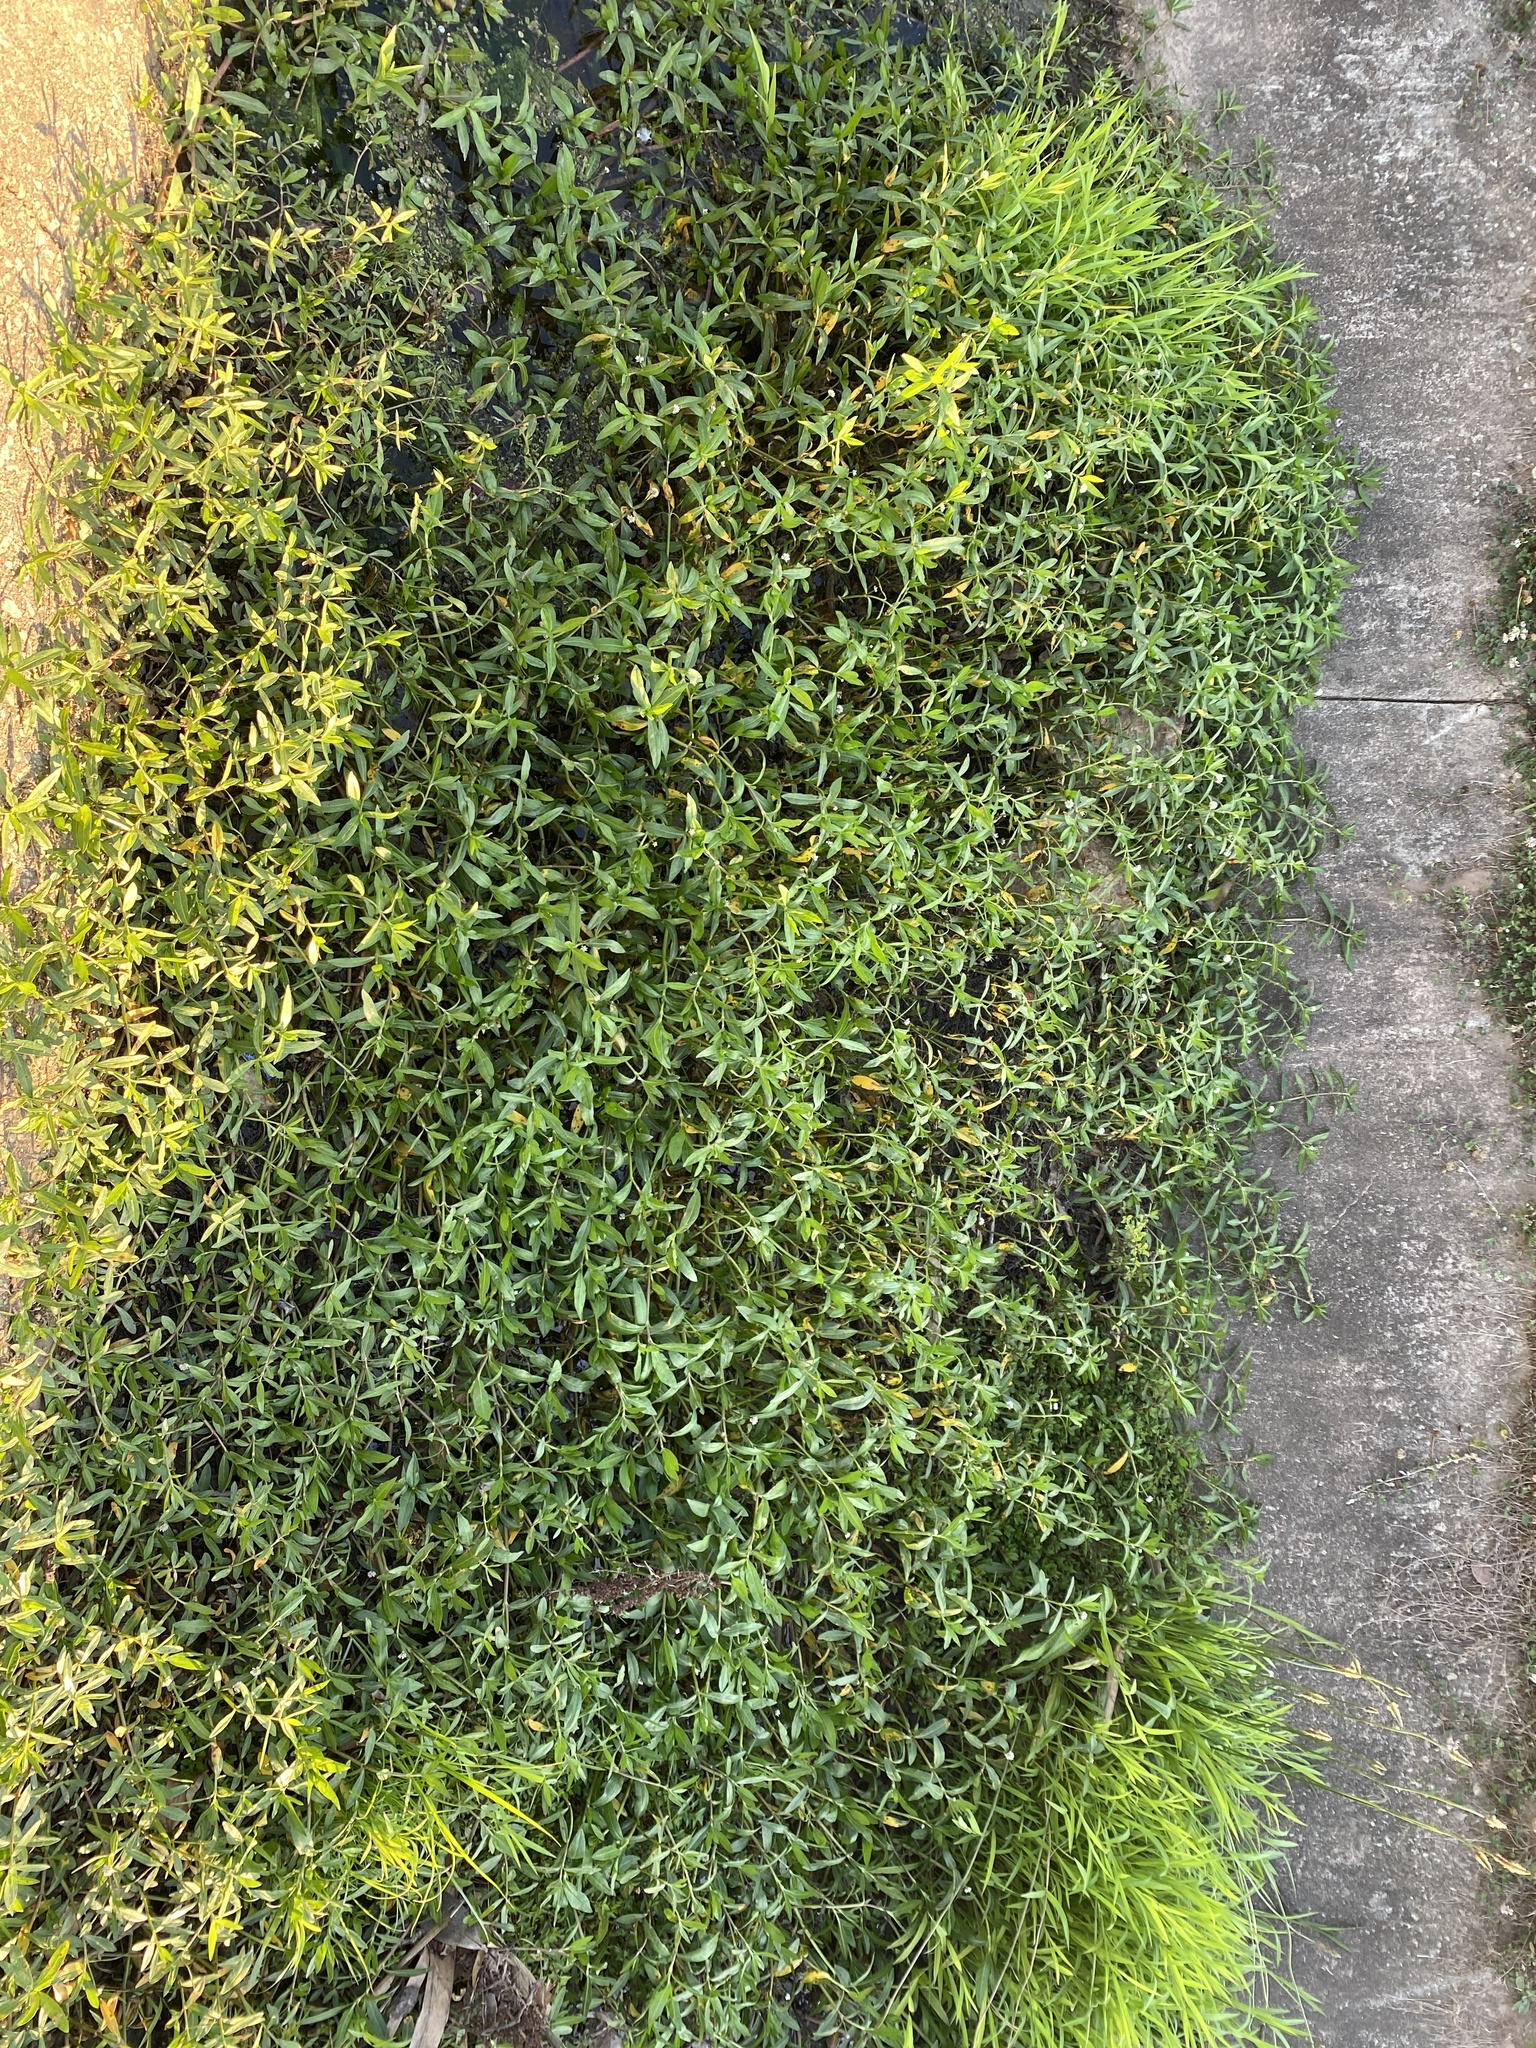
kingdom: Plantae
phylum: Tracheophyta
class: Magnoliopsida
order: Caryophyllales
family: Amaranthaceae
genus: Alternanthera
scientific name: Alternanthera philoxeroides
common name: Alligatorweed
